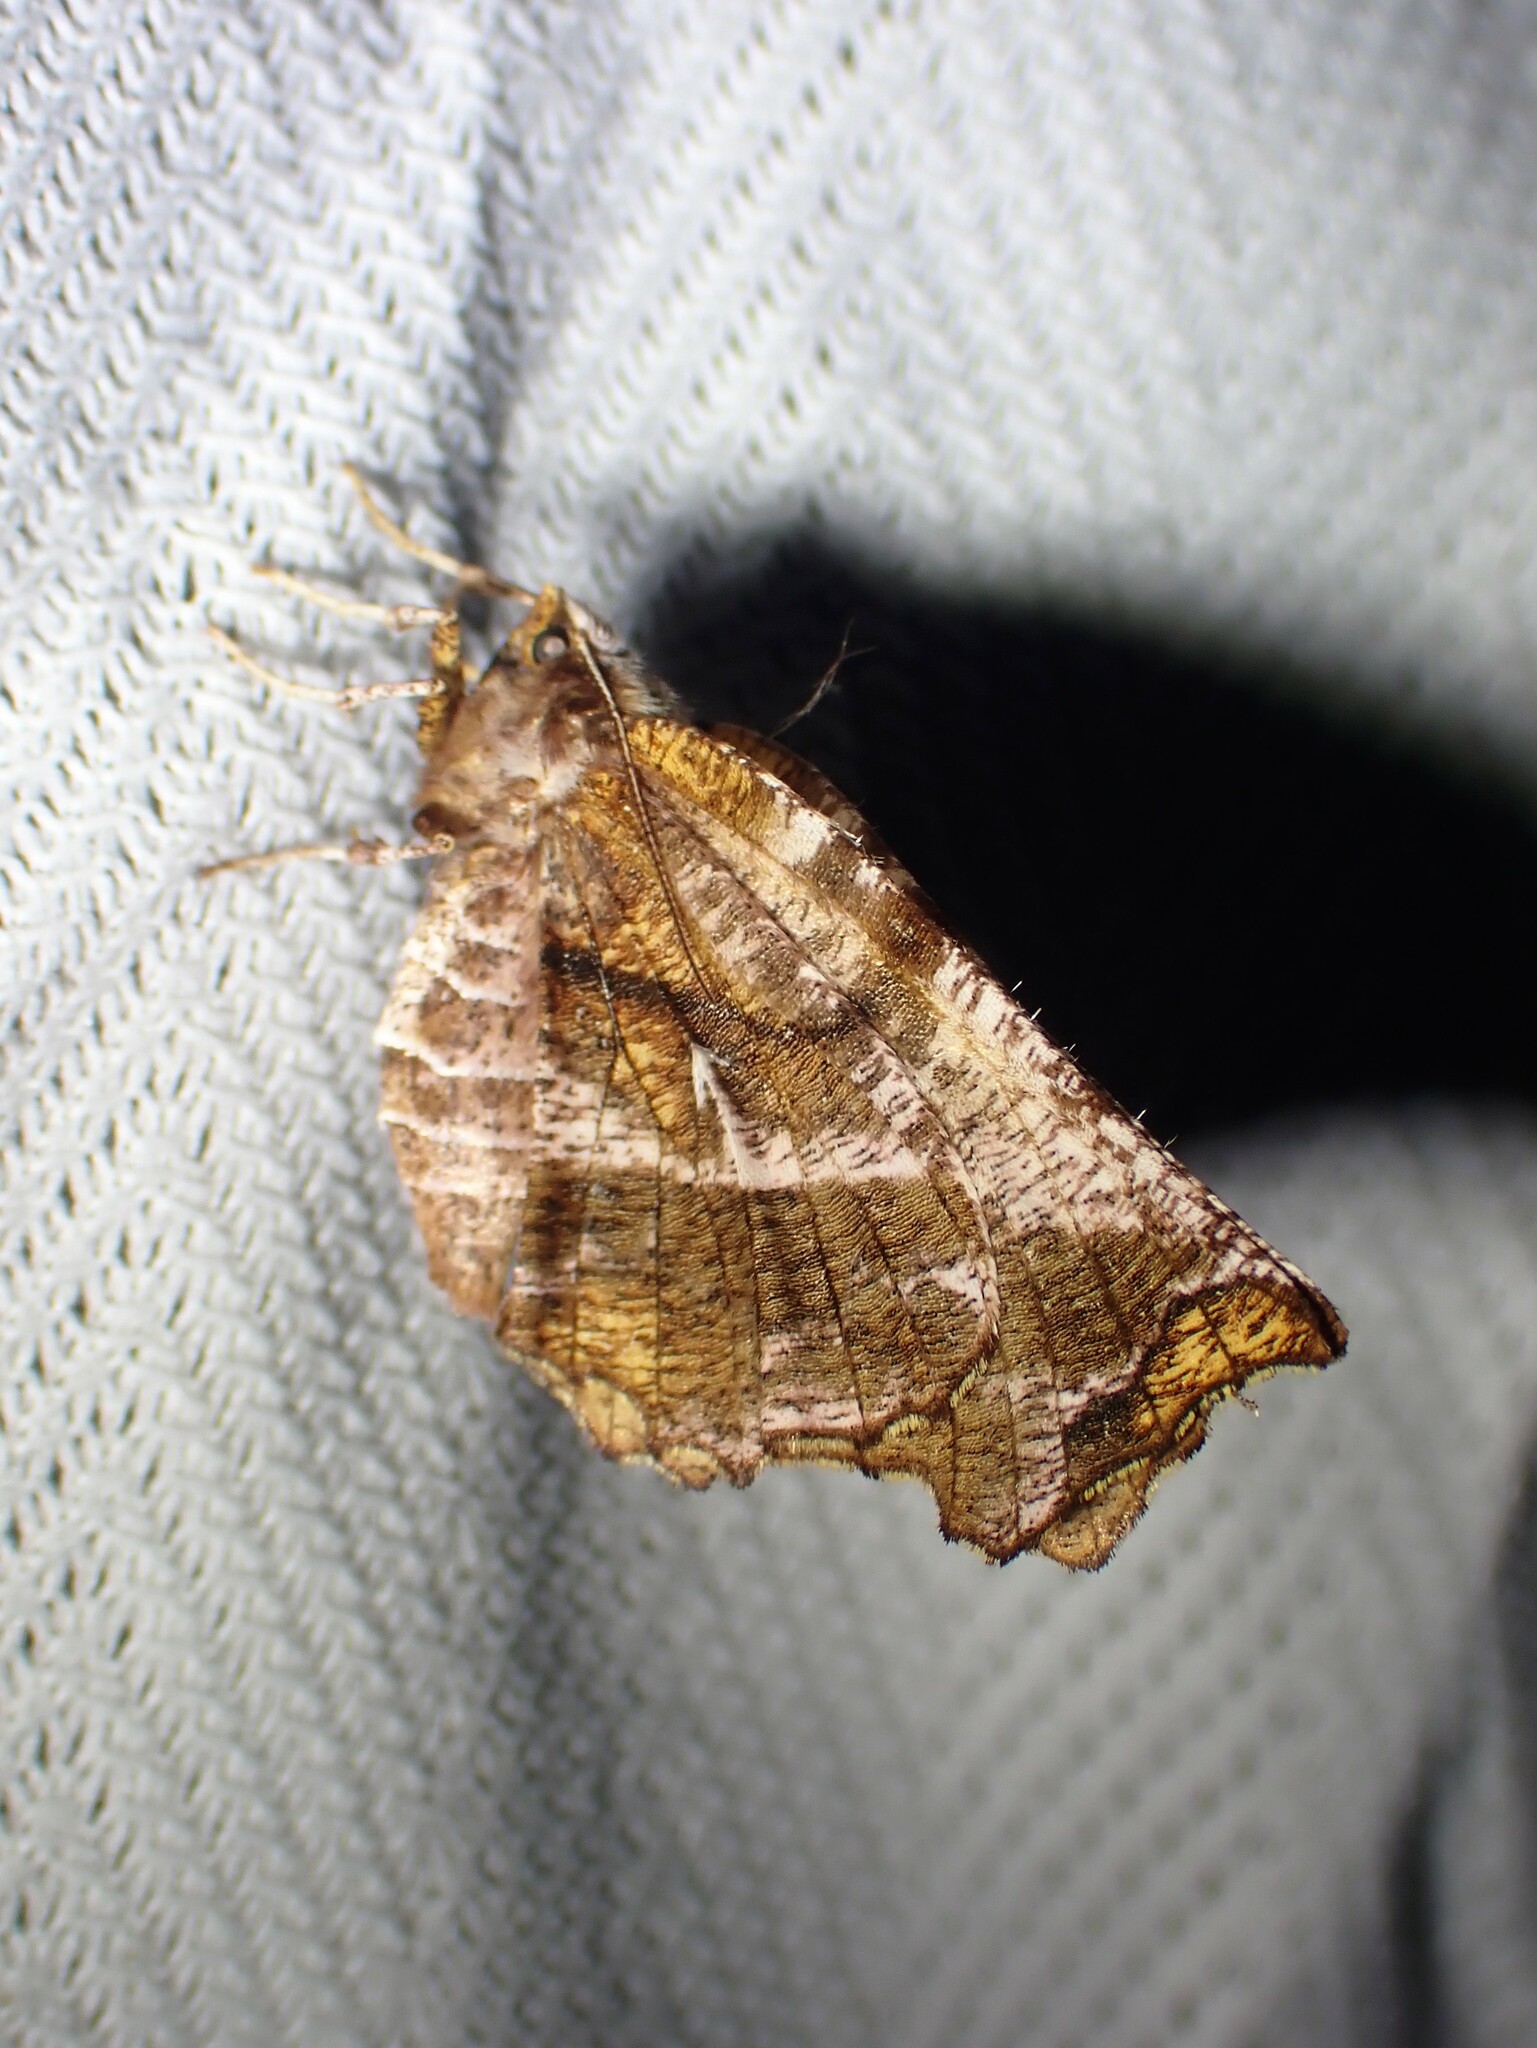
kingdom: Animalia
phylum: Arthropoda
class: Insecta
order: Lepidoptera
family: Geometridae
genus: Selenia
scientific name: Selenia alciphearia
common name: Brown-tipped thorn
